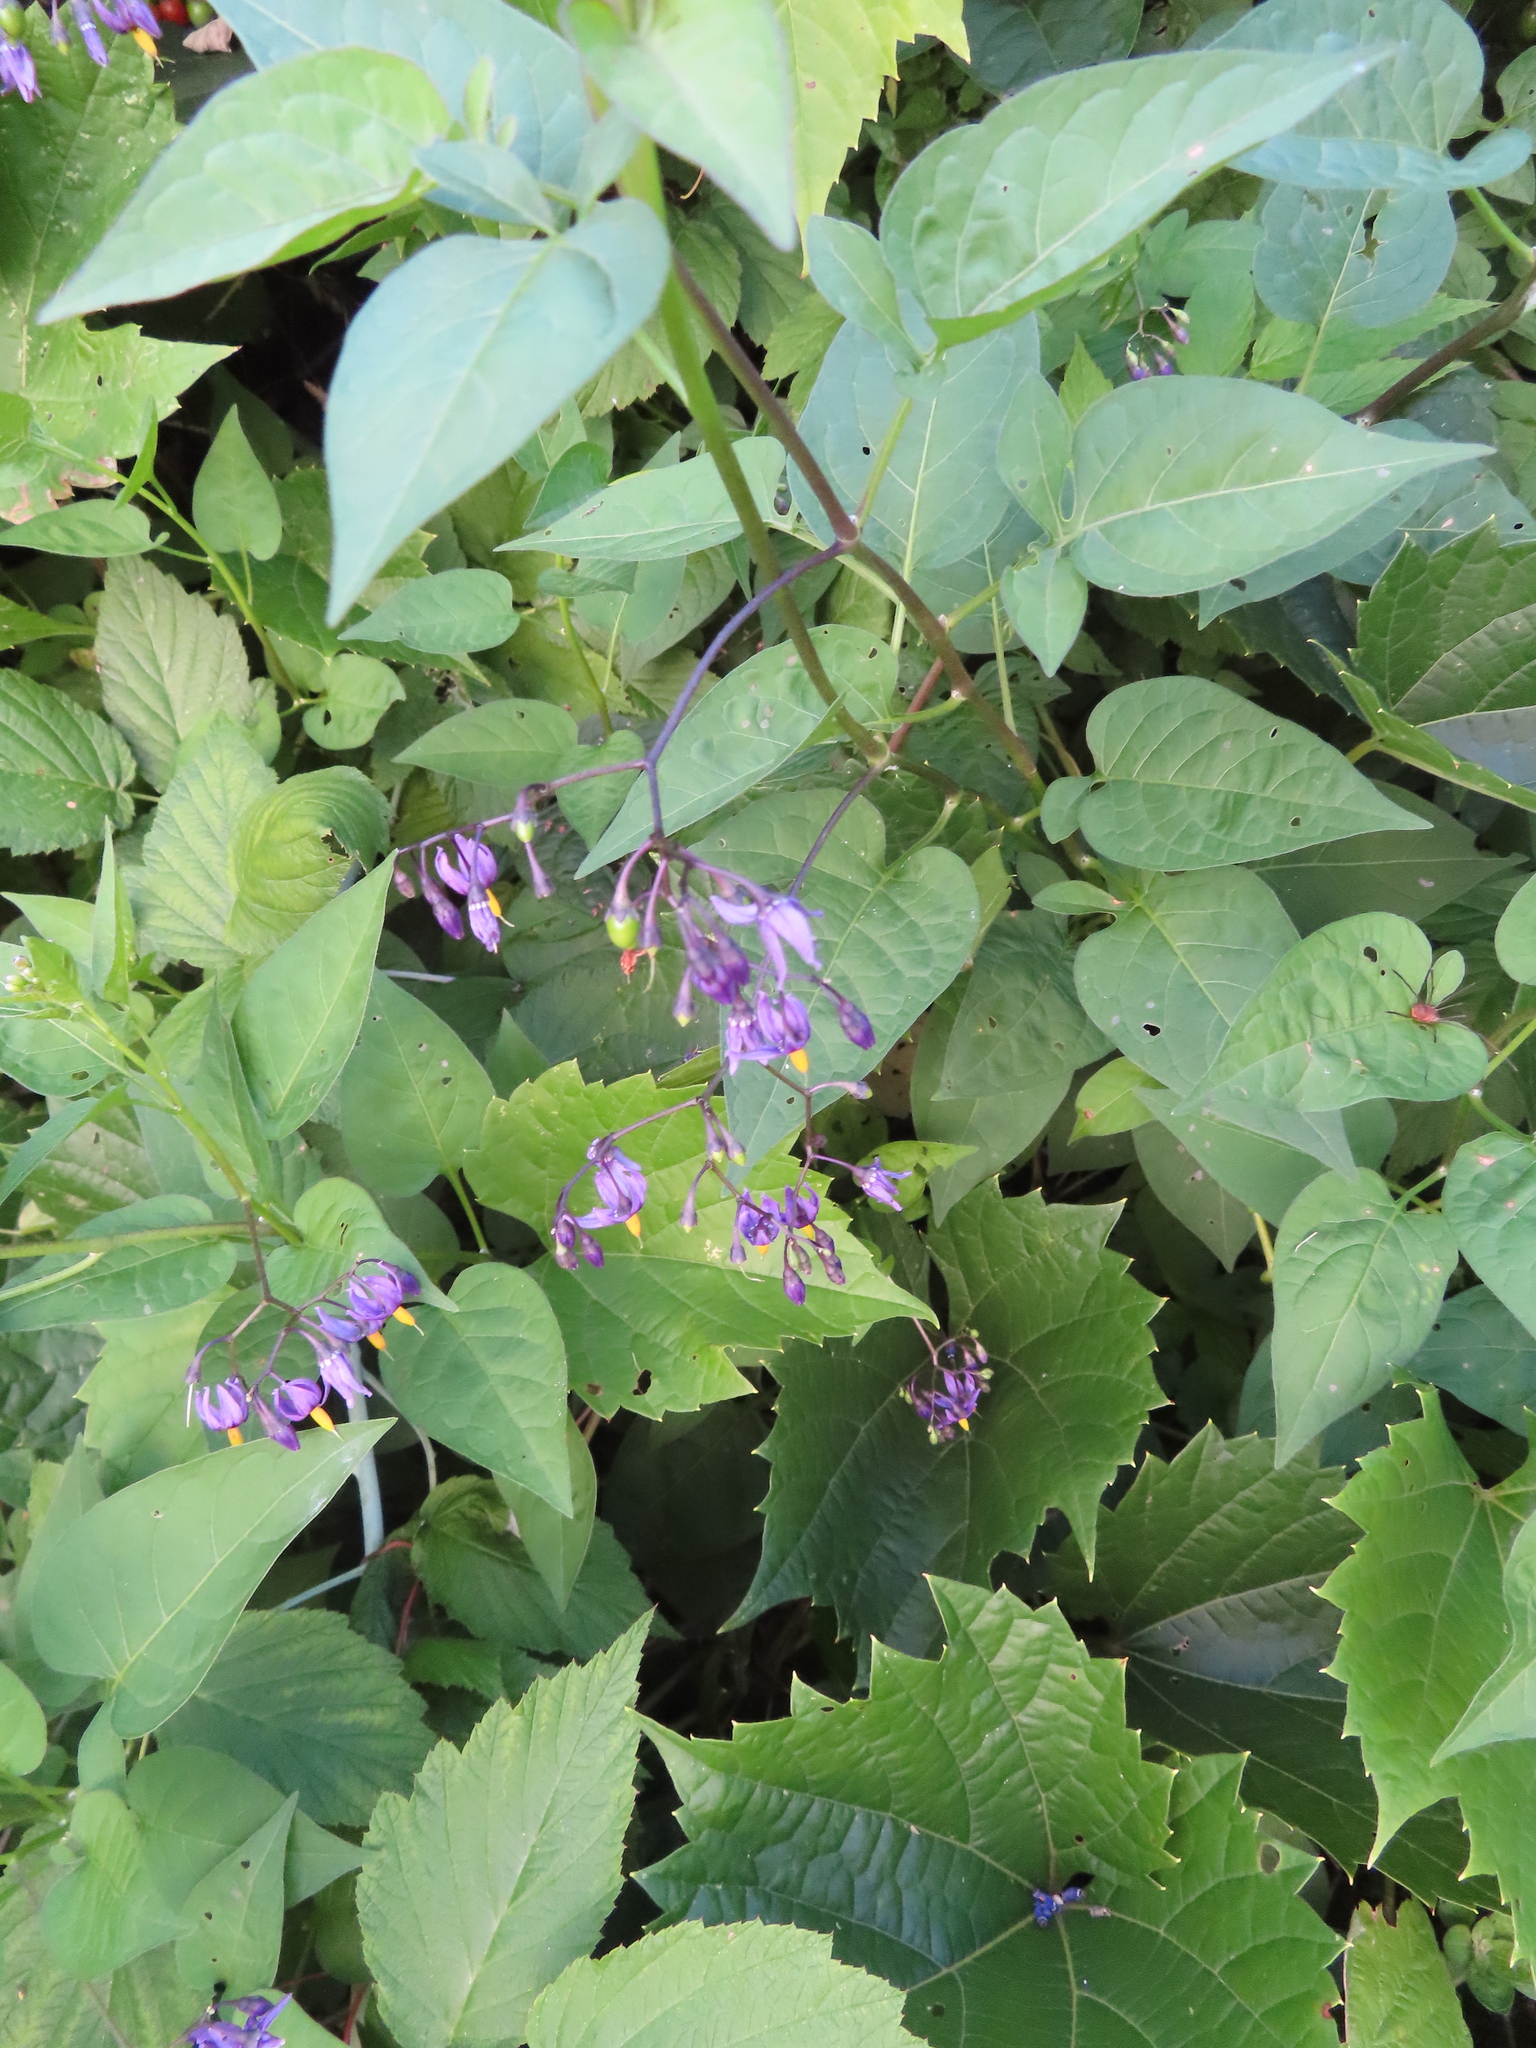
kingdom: Plantae
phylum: Tracheophyta
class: Magnoliopsida
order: Solanales
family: Solanaceae
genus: Solanum
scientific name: Solanum dulcamara
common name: Climbing nightshade
